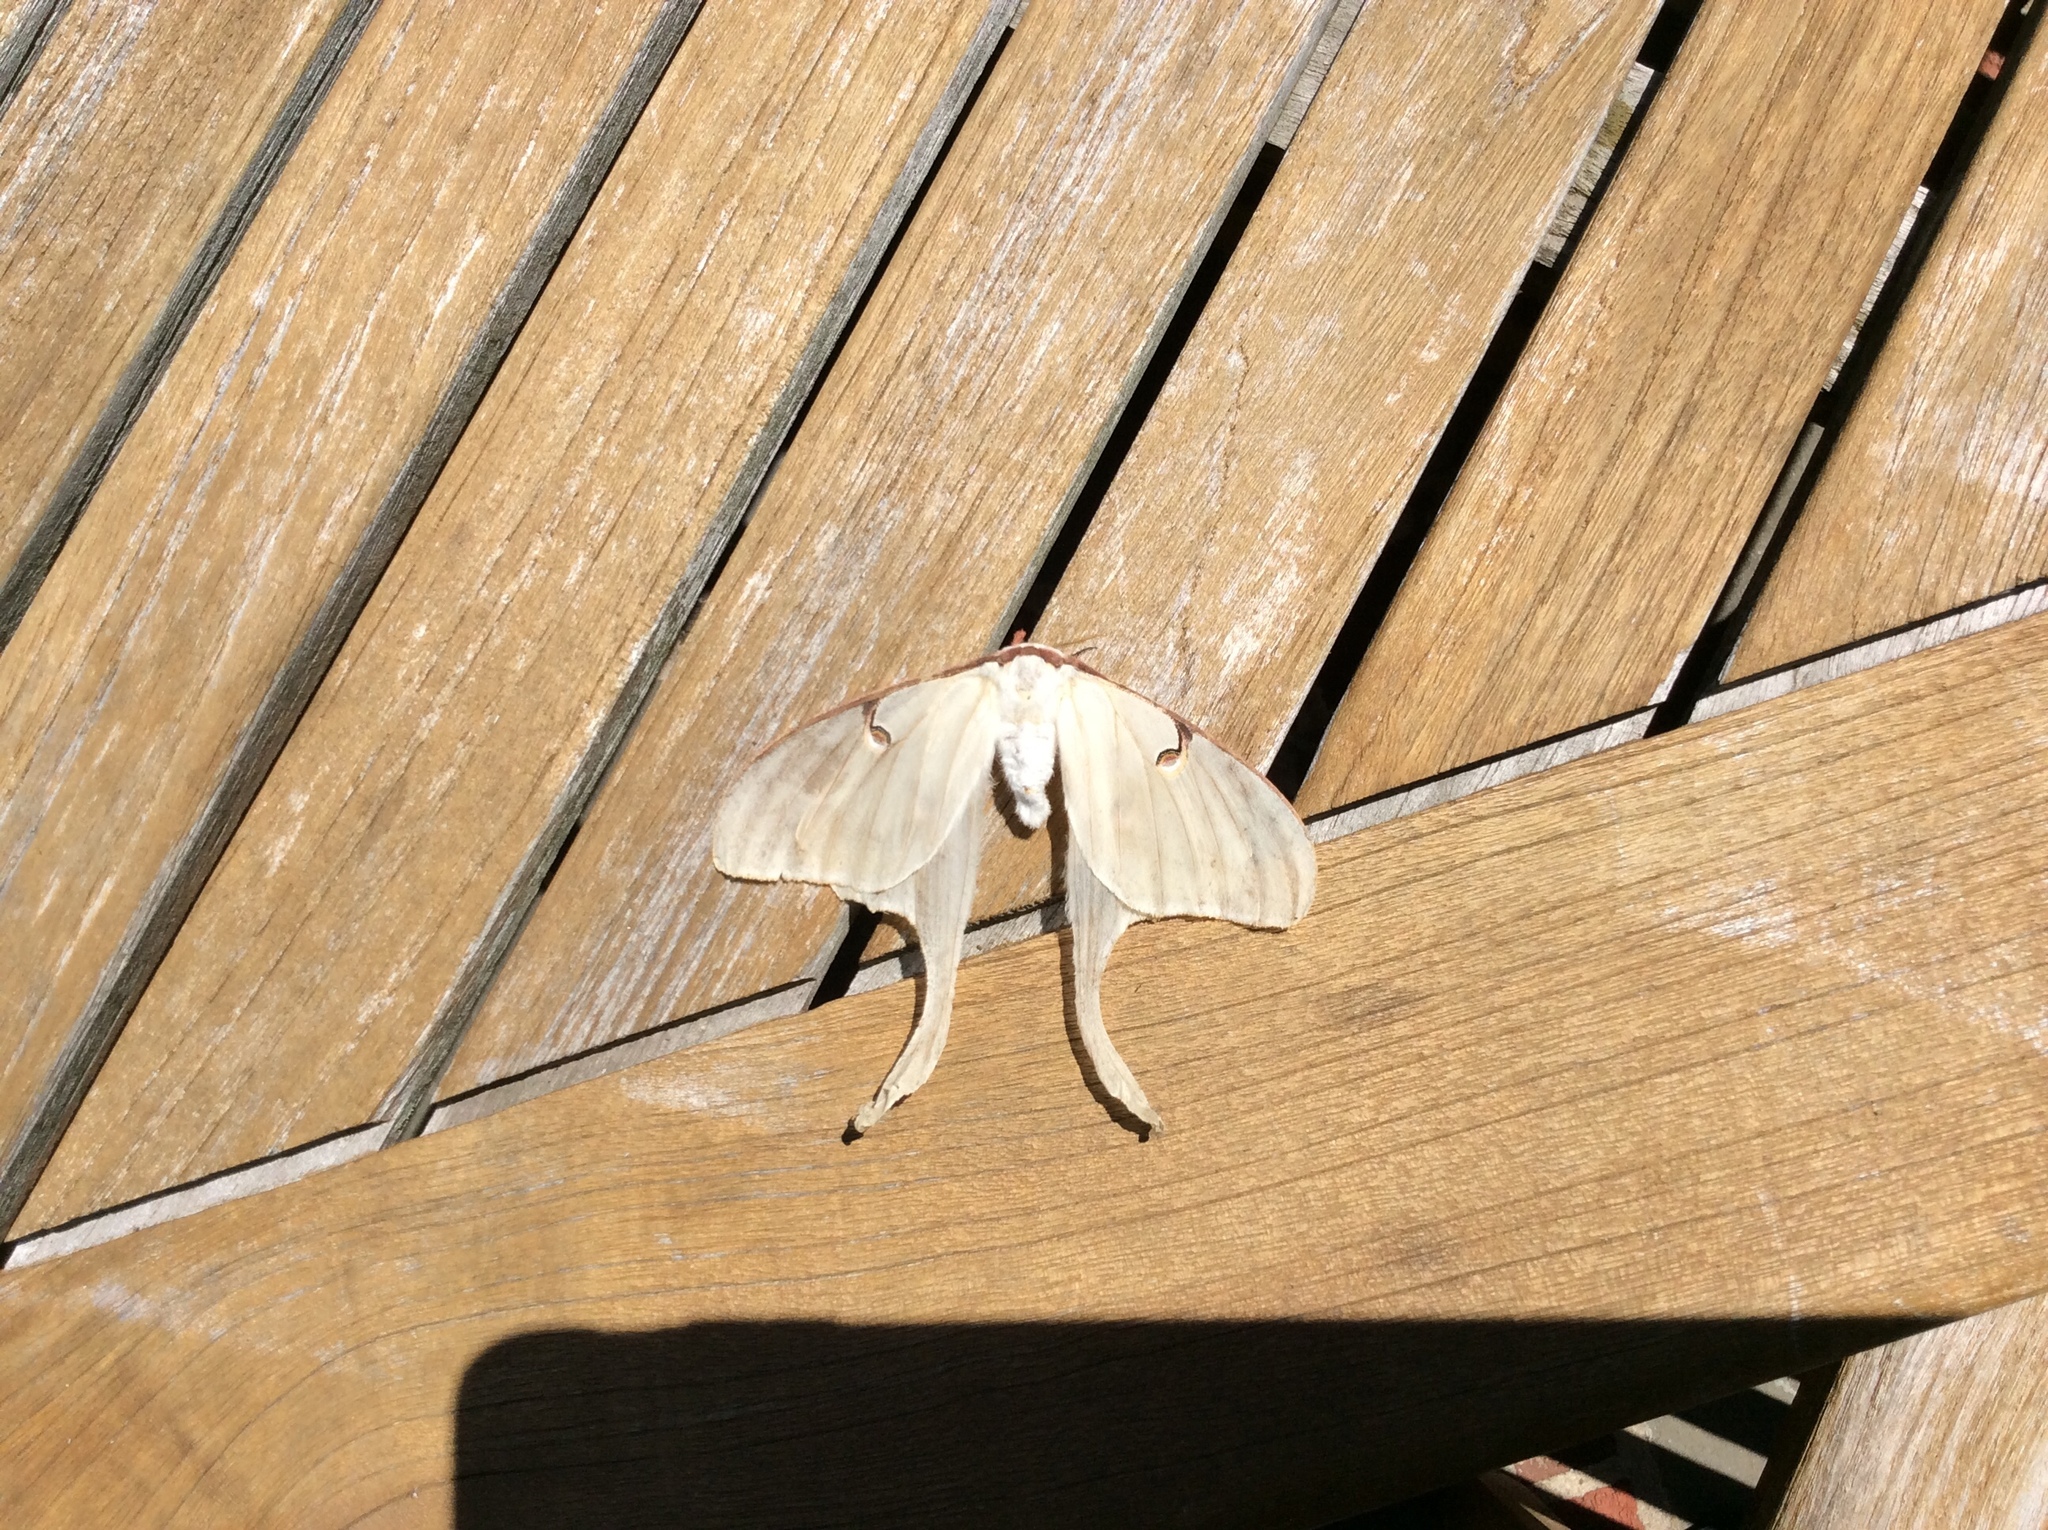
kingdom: Animalia
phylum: Arthropoda
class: Insecta
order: Lepidoptera
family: Saturniidae
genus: Actias
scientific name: Actias luna
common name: Luna moth
